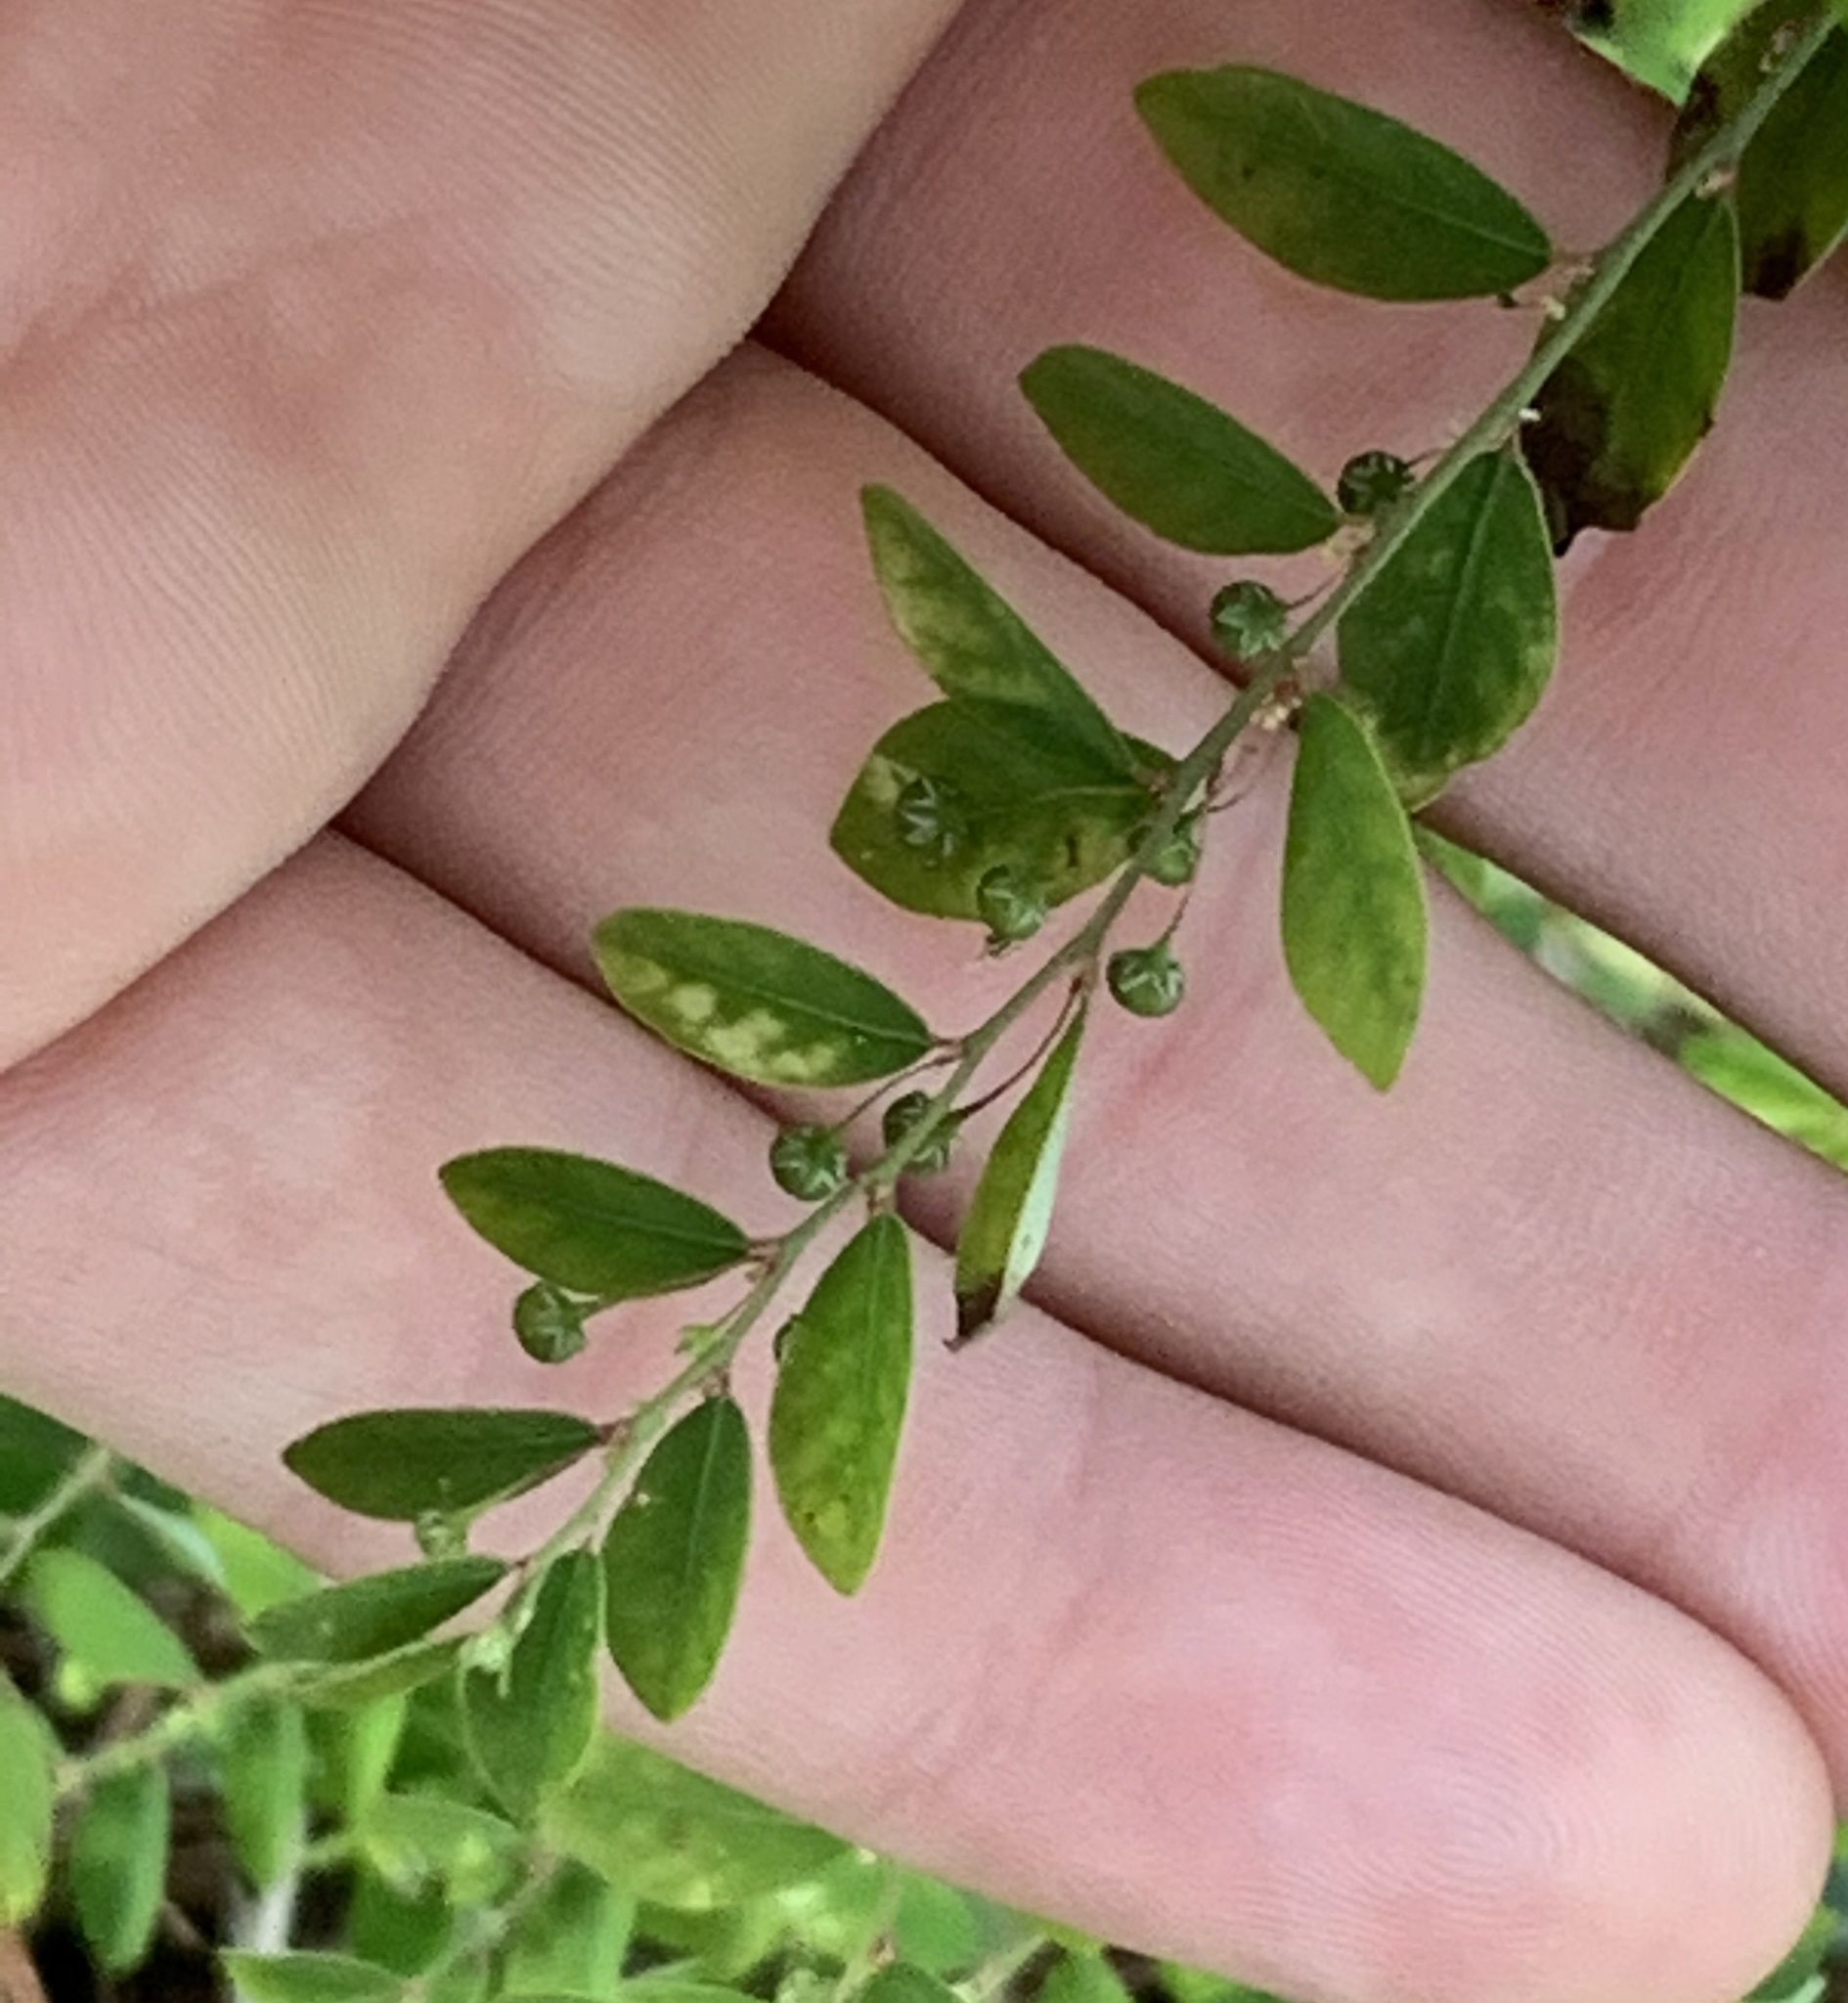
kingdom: Plantae
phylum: Tracheophyta
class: Magnoliopsida
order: Malpighiales
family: Phyllanthaceae
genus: Phyllanthus
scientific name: Phyllanthus tenellus
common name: Mascarene island leaf-flower
